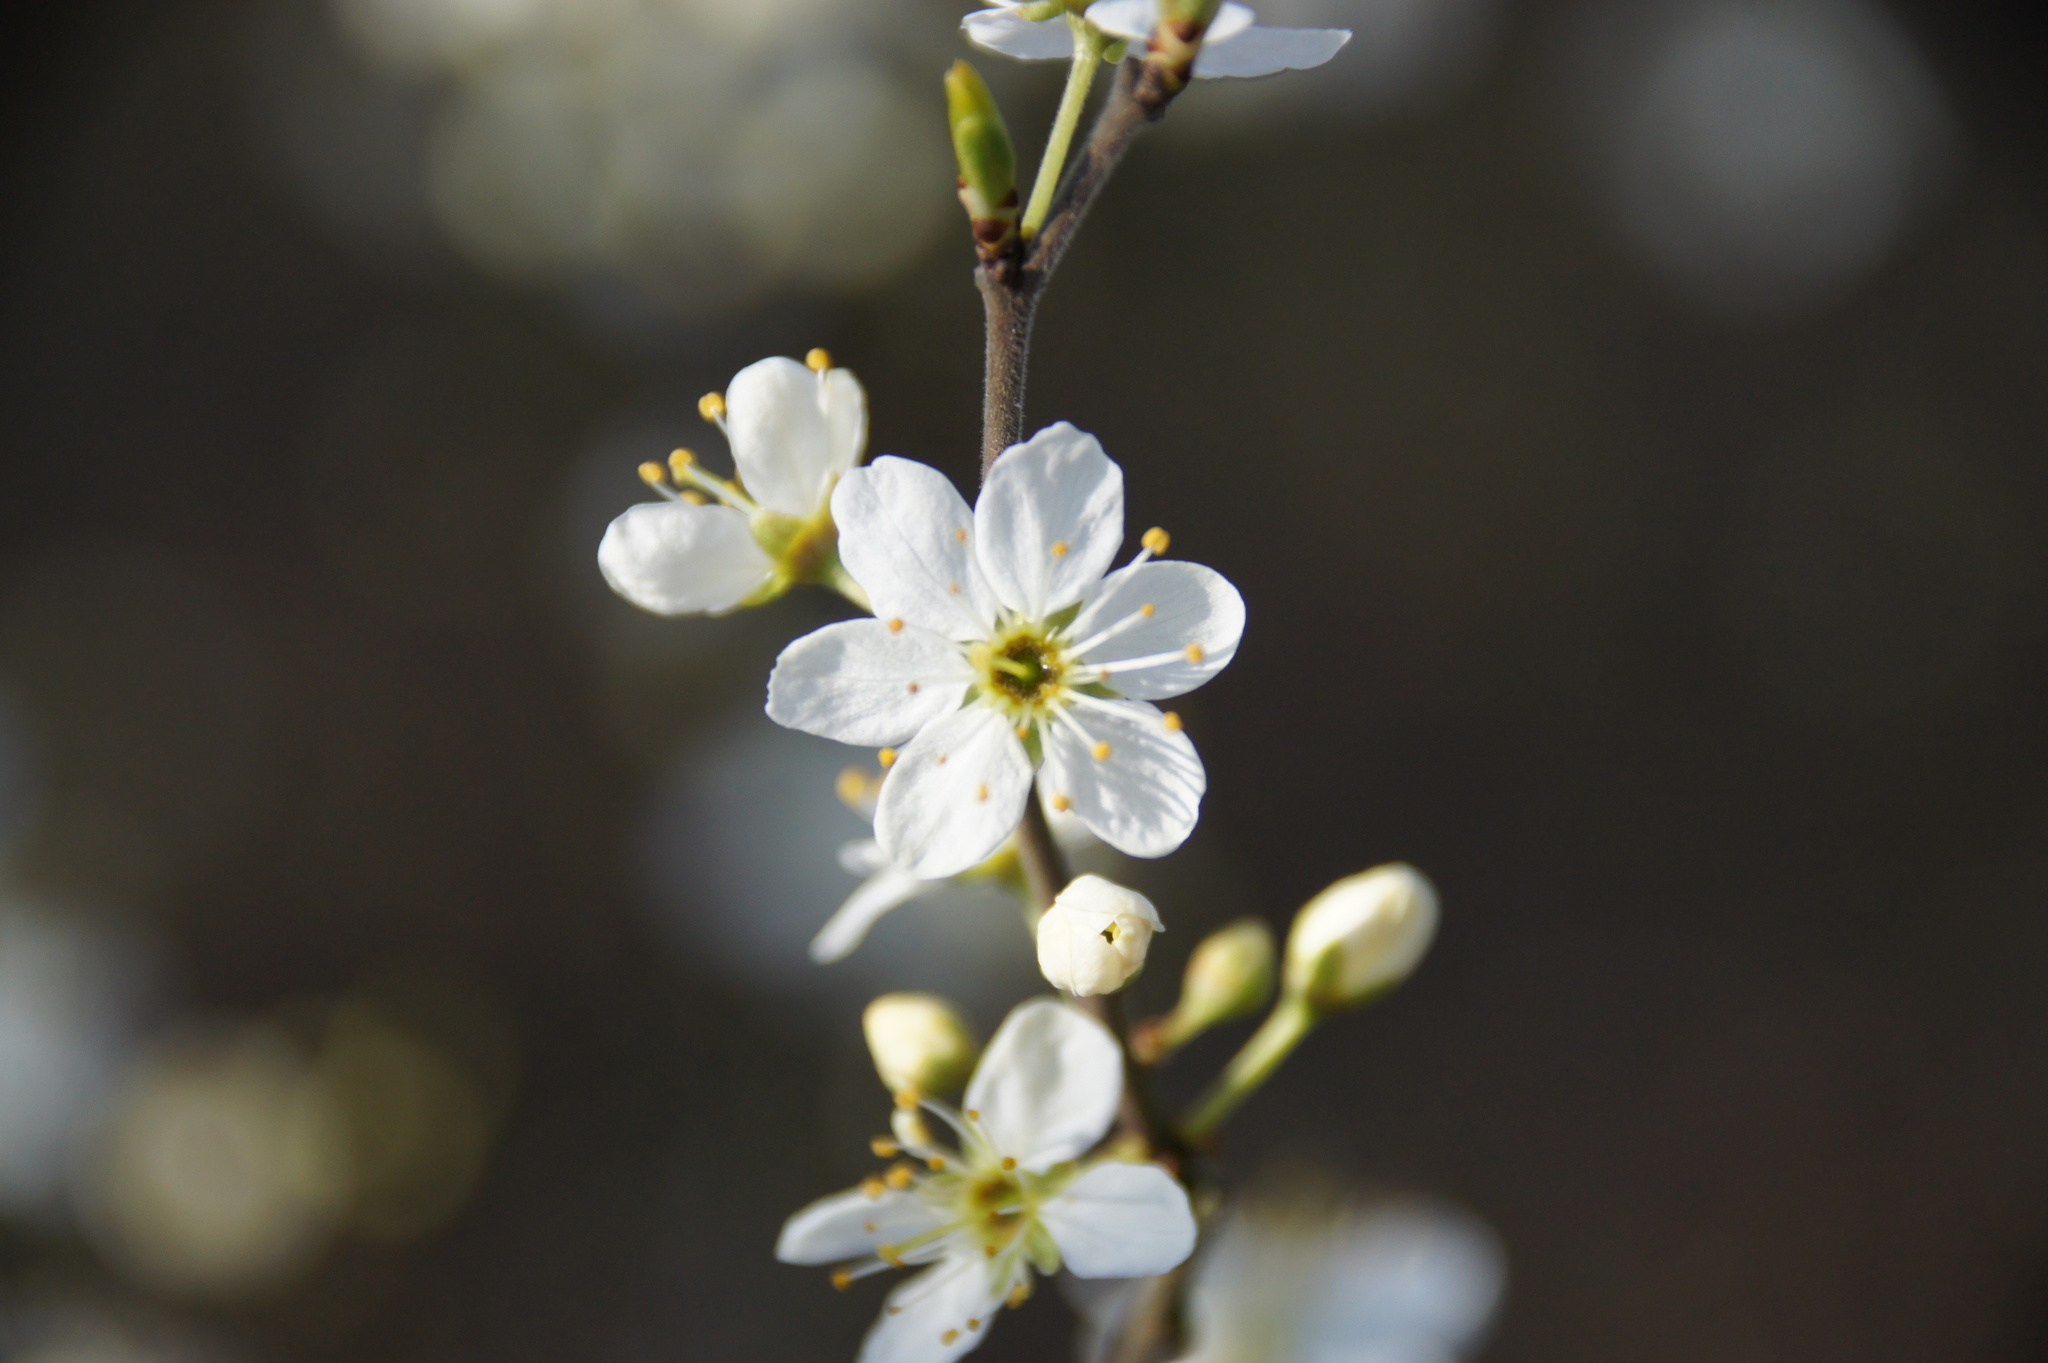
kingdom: Plantae
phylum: Tracheophyta
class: Magnoliopsida
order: Rosales
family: Rosaceae
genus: Prunus
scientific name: Prunus spinosa
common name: Blackthorn
